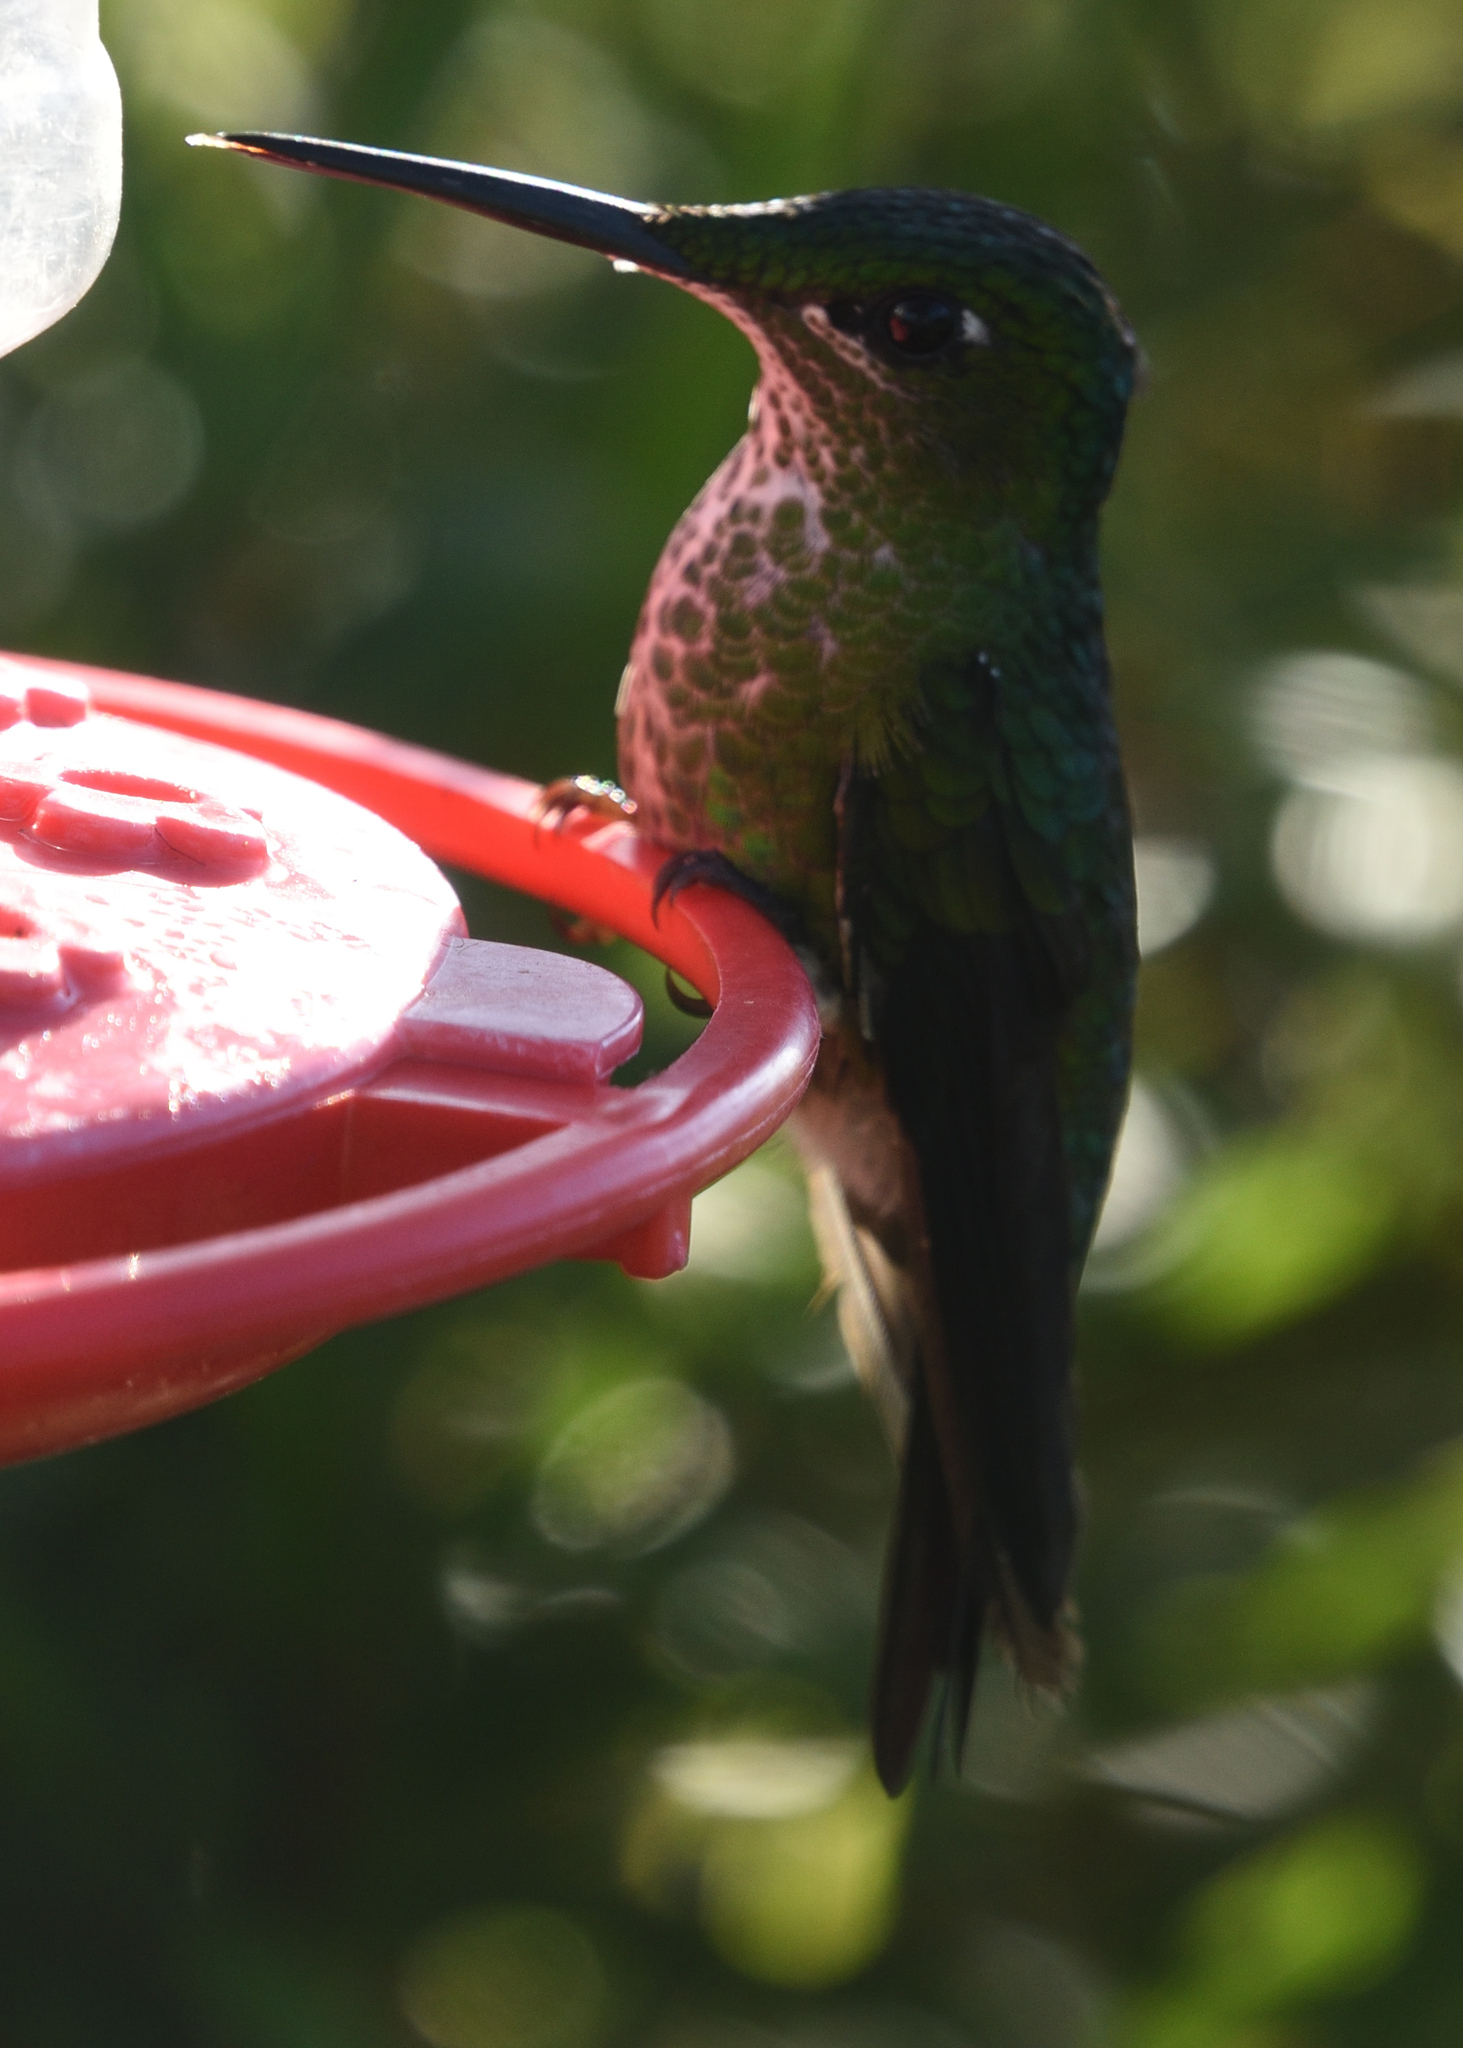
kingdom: Animalia
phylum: Chordata
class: Aves
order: Apodiformes
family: Trochilidae
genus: Heliodoxa
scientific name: Heliodoxa jacula
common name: Green-crowned brilliant
